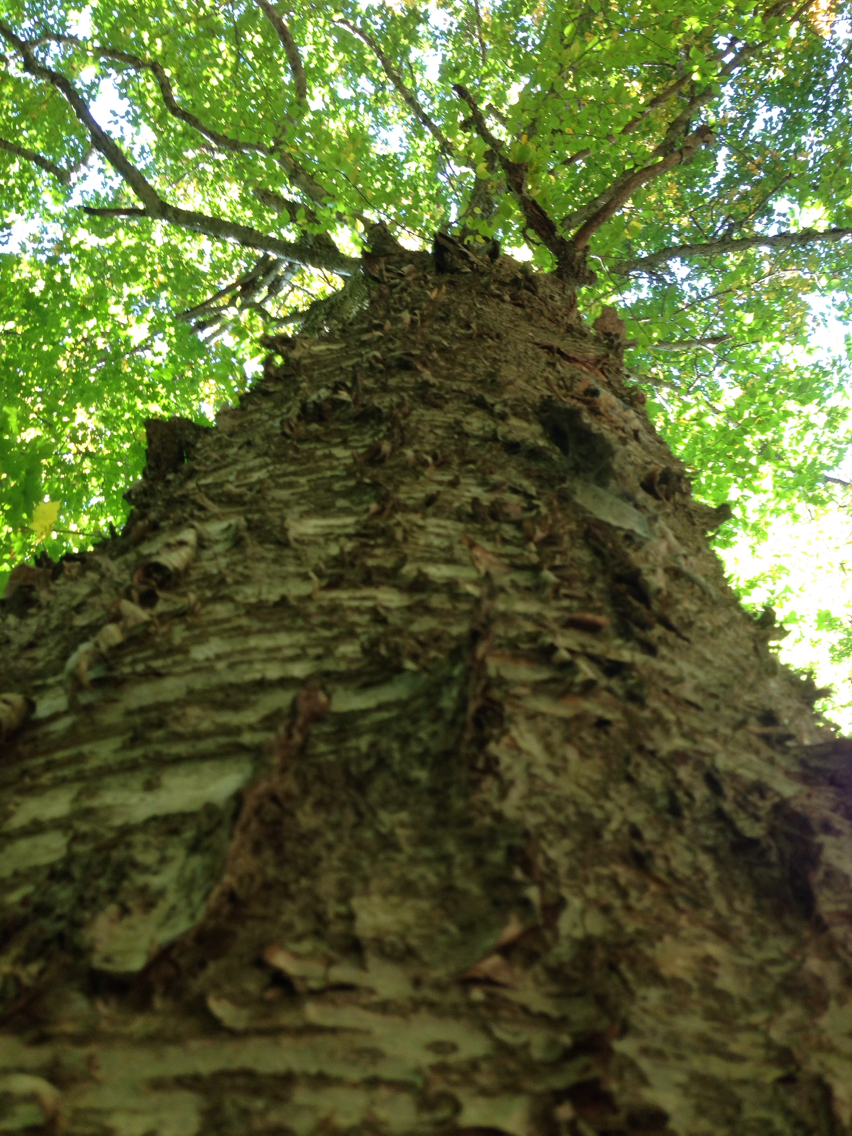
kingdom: Plantae
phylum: Tracheophyta
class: Magnoliopsida
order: Fagales
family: Betulaceae
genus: Betula
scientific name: Betula alleghaniensis
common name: Yellow birch
